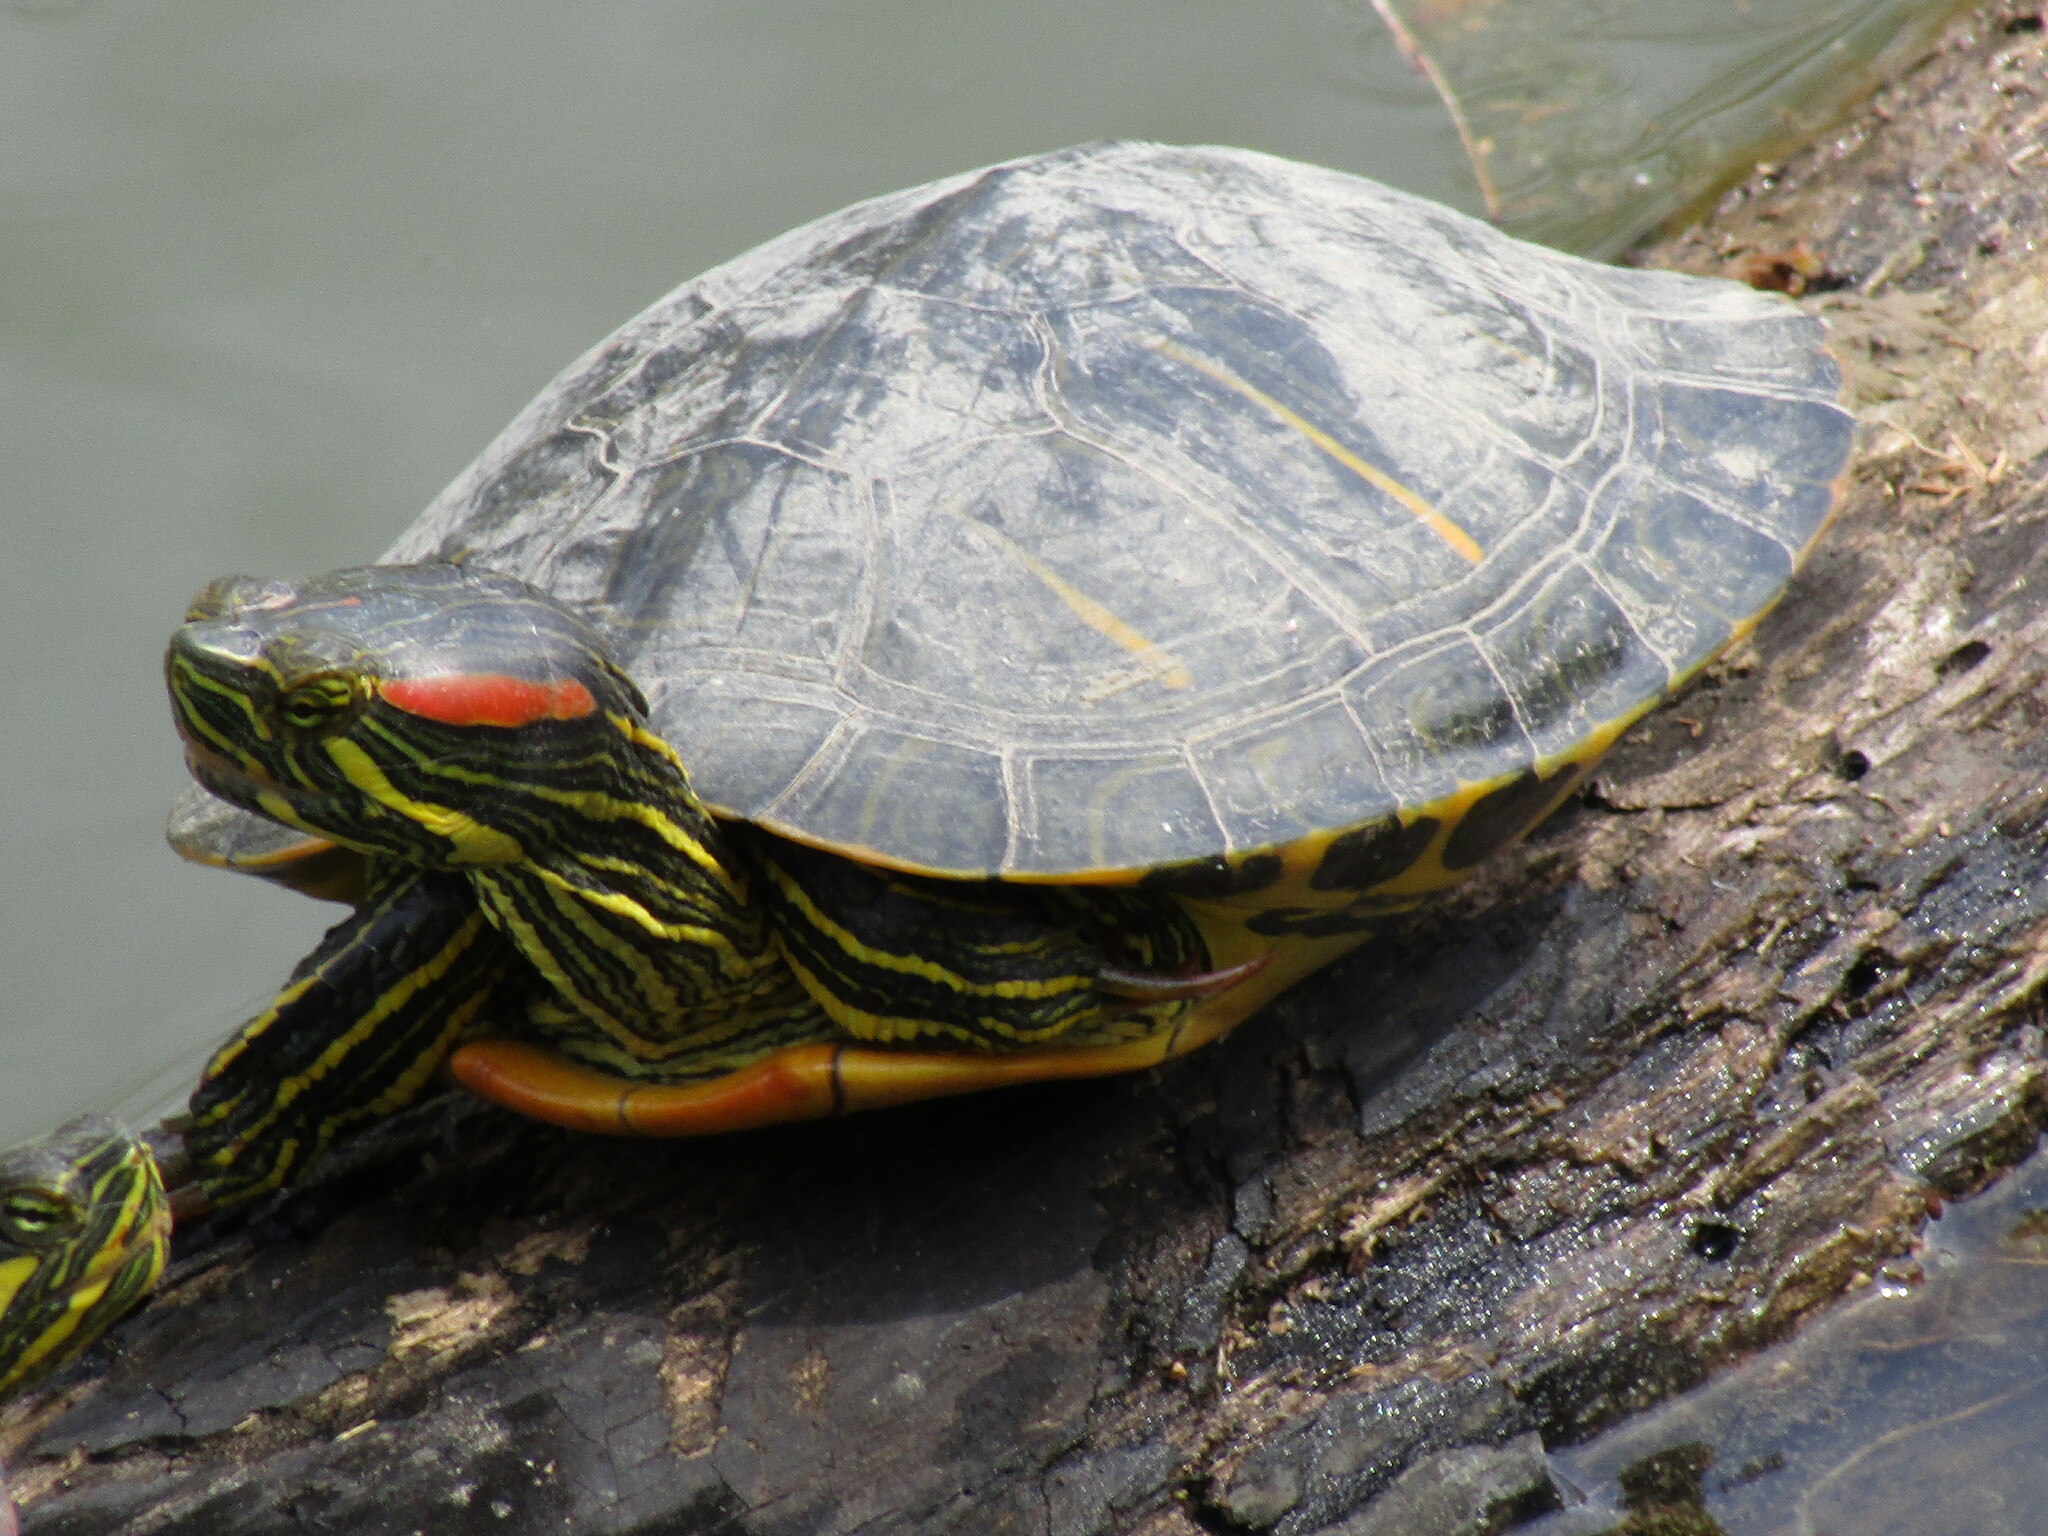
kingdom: Animalia
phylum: Chordata
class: Testudines
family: Emydidae
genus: Trachemys
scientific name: Trachemys scripta
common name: Slider
